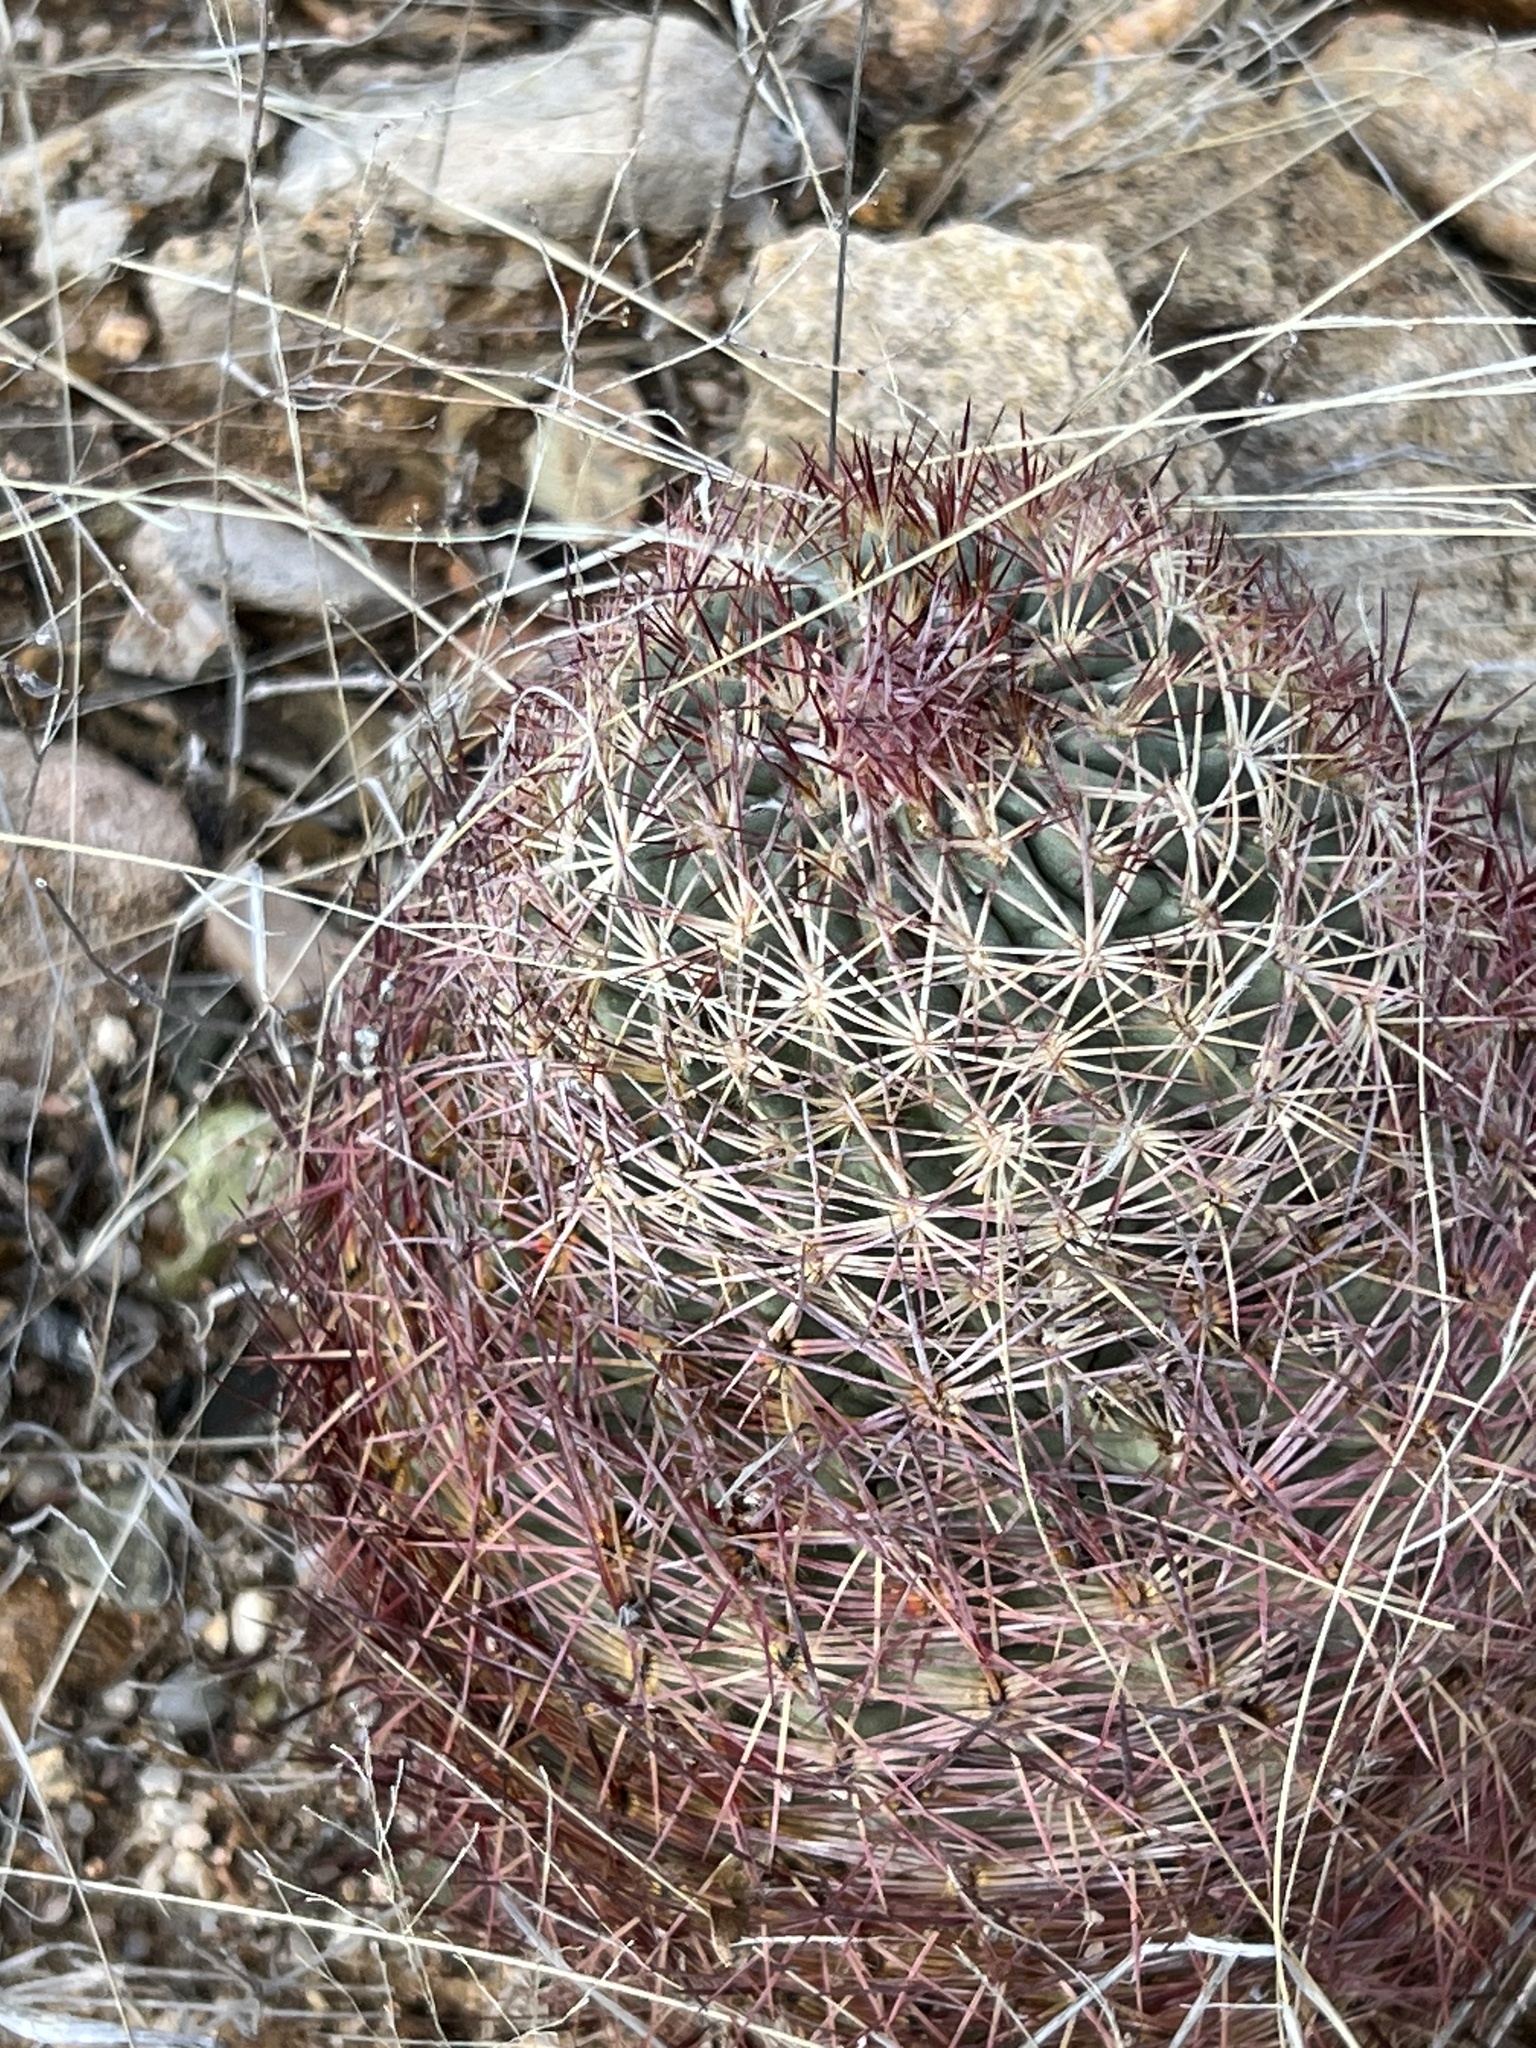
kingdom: Plantae
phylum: Tracheophyta
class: Magnoliopsida
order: Caryophyllales
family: Cactaceae
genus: Sclerocactus
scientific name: Sclerocactus johnsonii
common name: Eight-spine fishhook cactus
